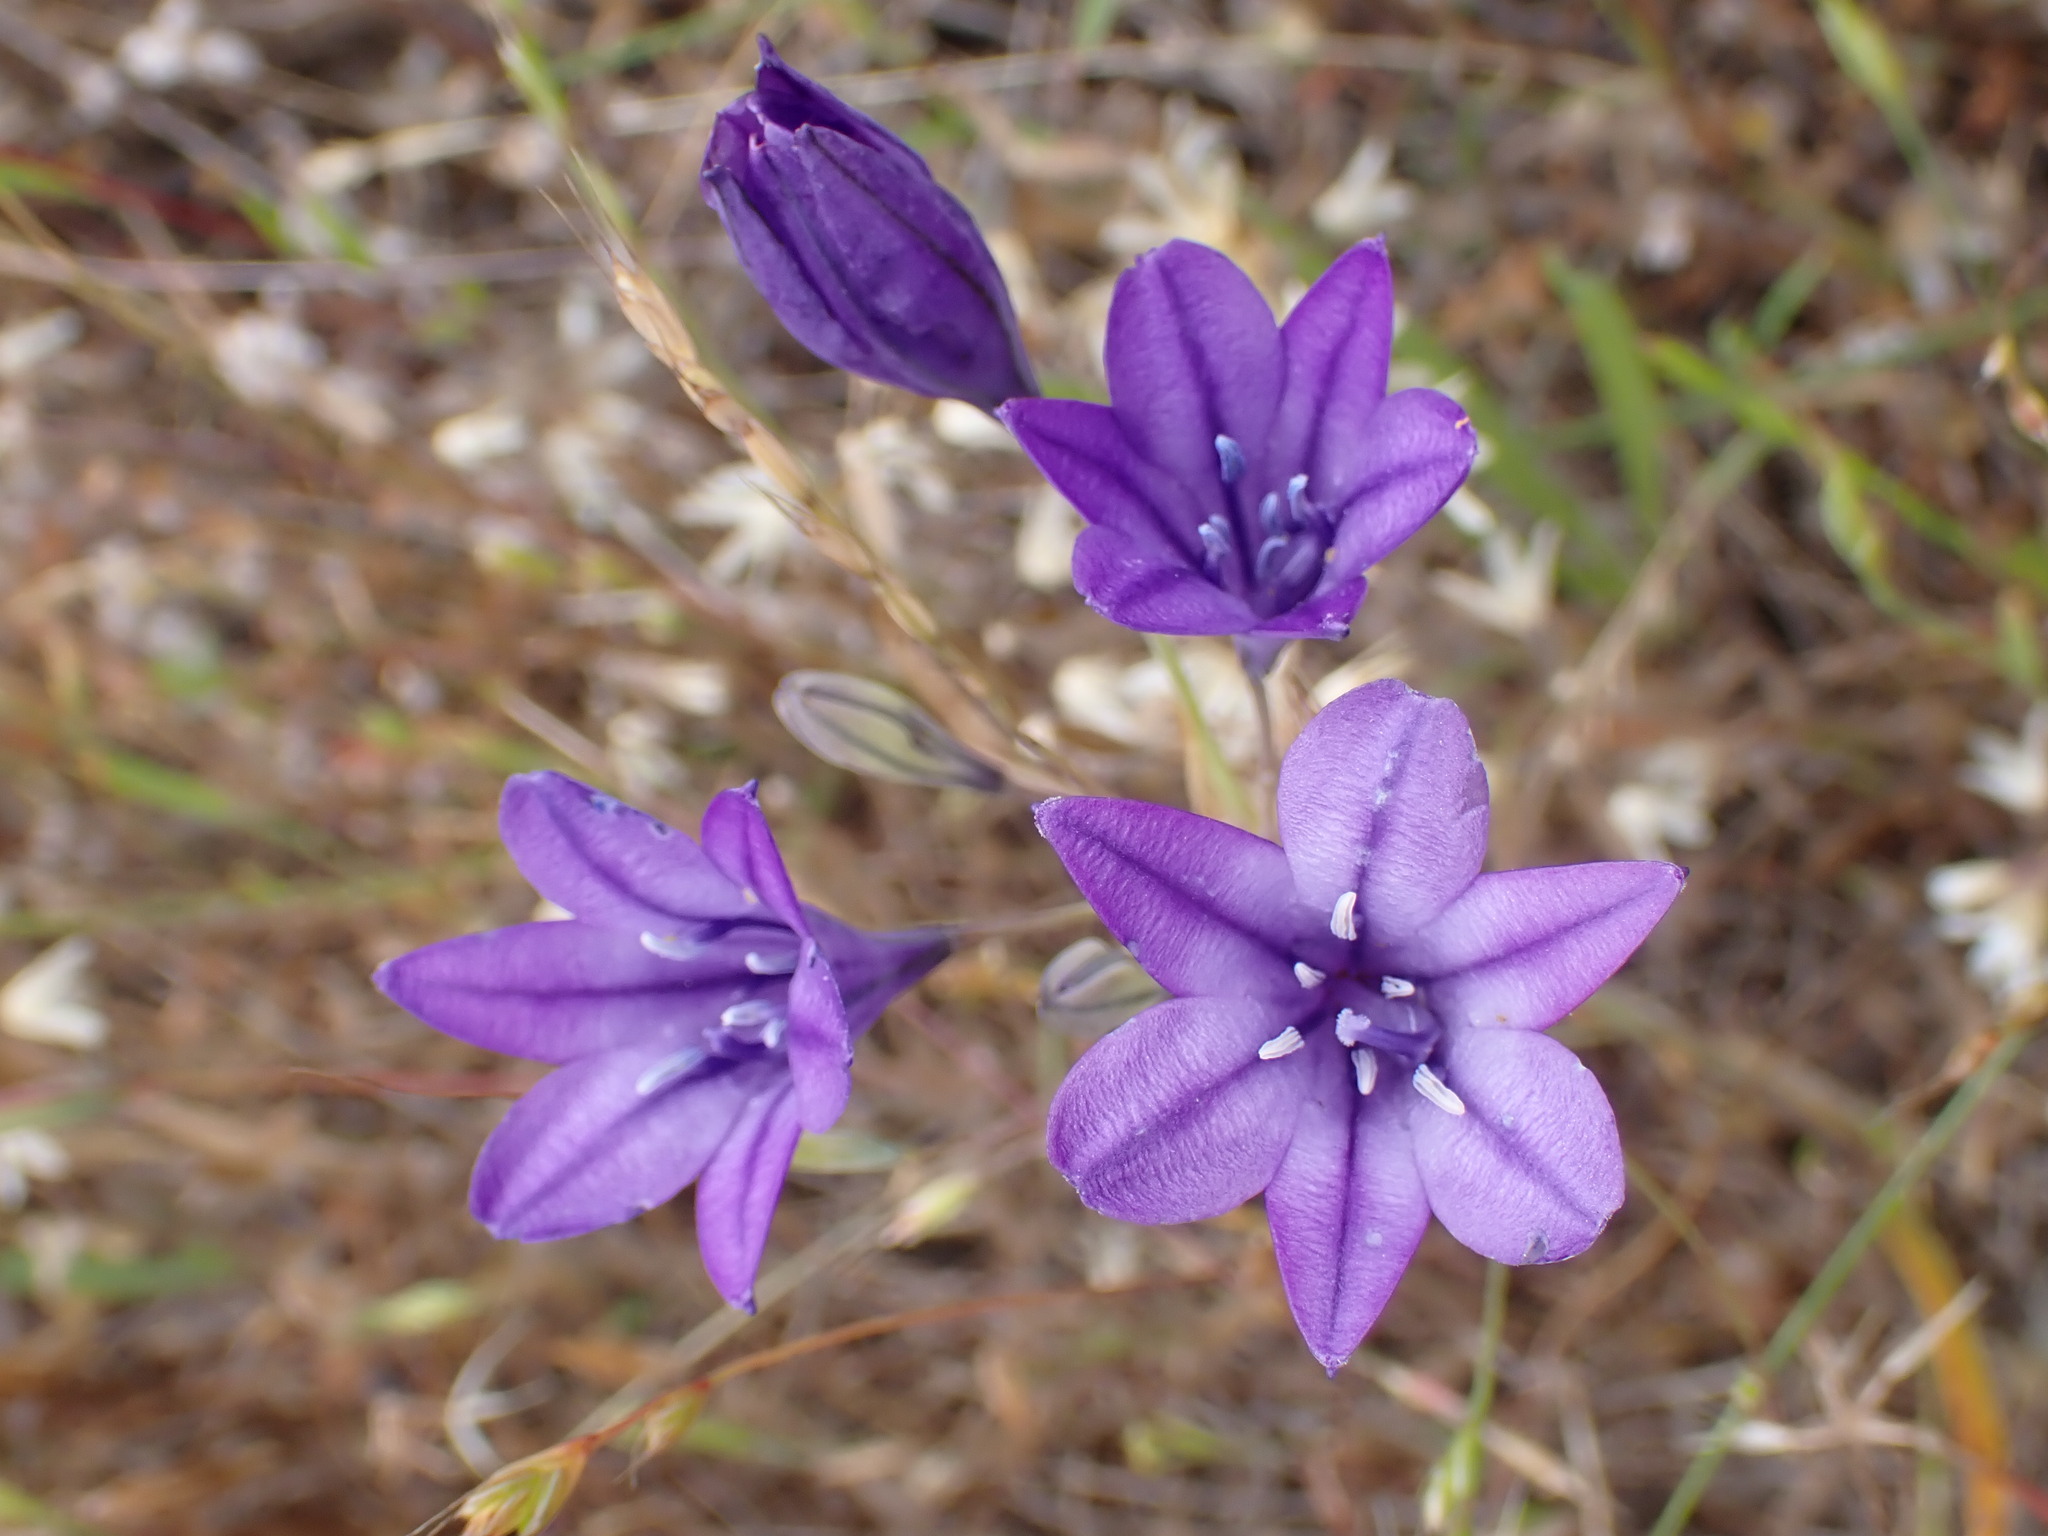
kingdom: Plantae
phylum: Tracheophyta
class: Liliopsida
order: Asparagales
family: Asparagaceae
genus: Triteleia
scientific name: Triteleia laxa
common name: Triplet-lily
